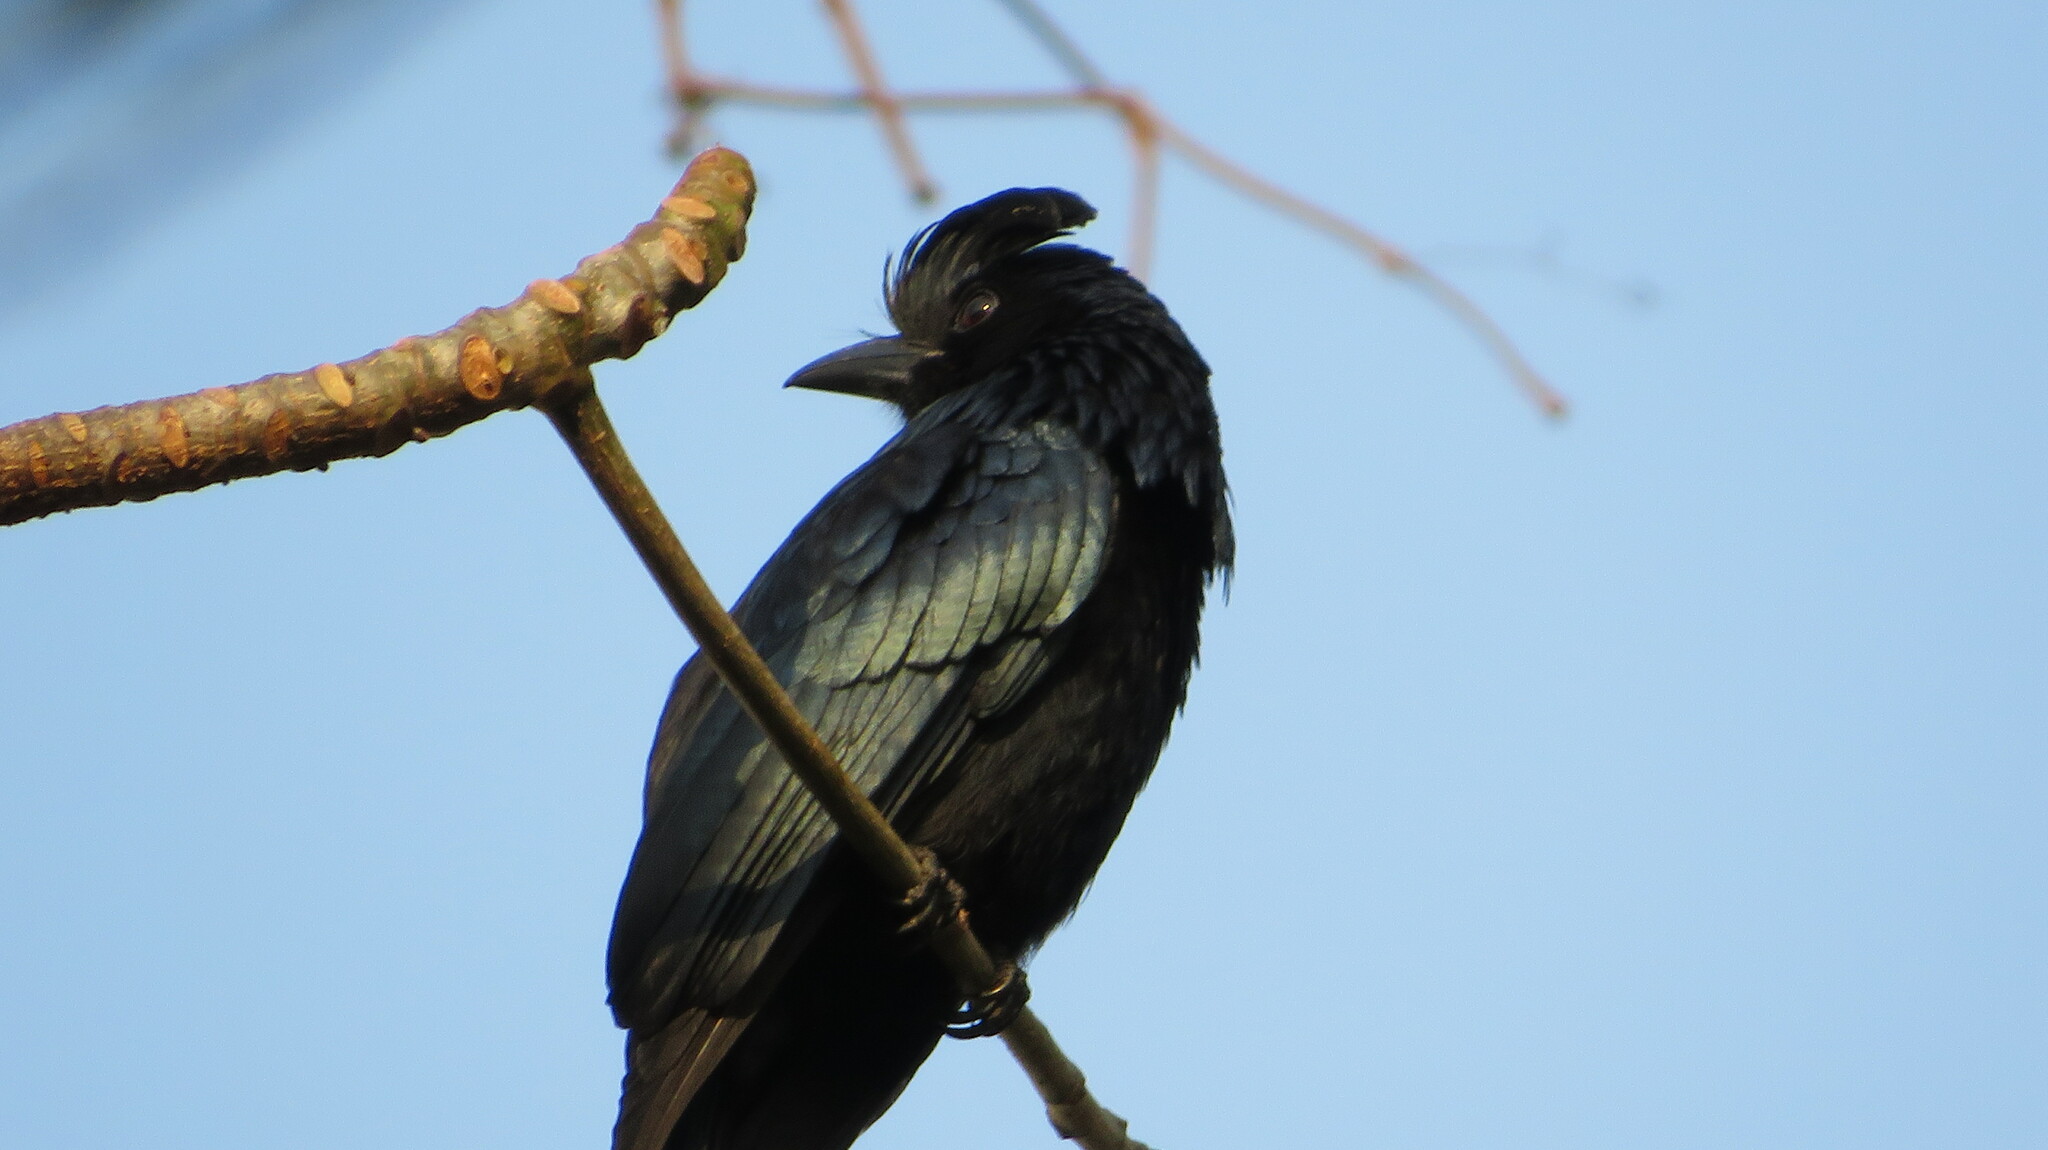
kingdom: Animalia
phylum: Chordata
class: Aves
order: Passeriformes
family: Dicruridae
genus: Dicrurus
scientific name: Dicrurus paradiseus
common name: Greater racket-tailed drongo
